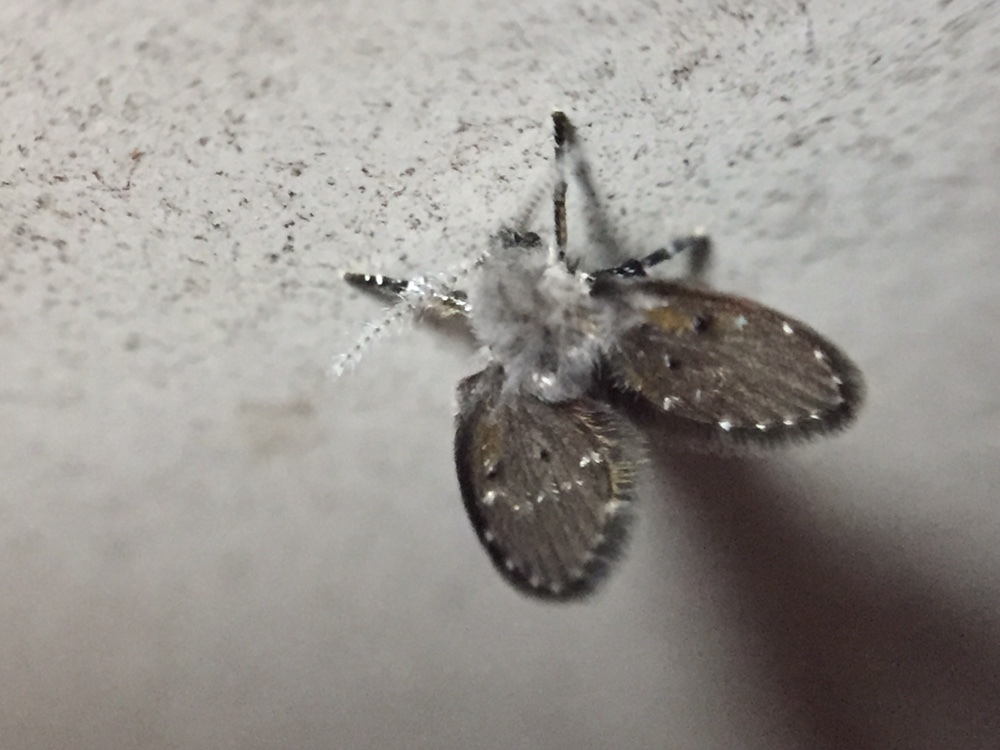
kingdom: Animalia
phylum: Arthropoda
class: Insecta
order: Diptera
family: Psychodidae
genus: Clogmia
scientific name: Clogmia albipunctatus
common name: White-spotted moth fly
